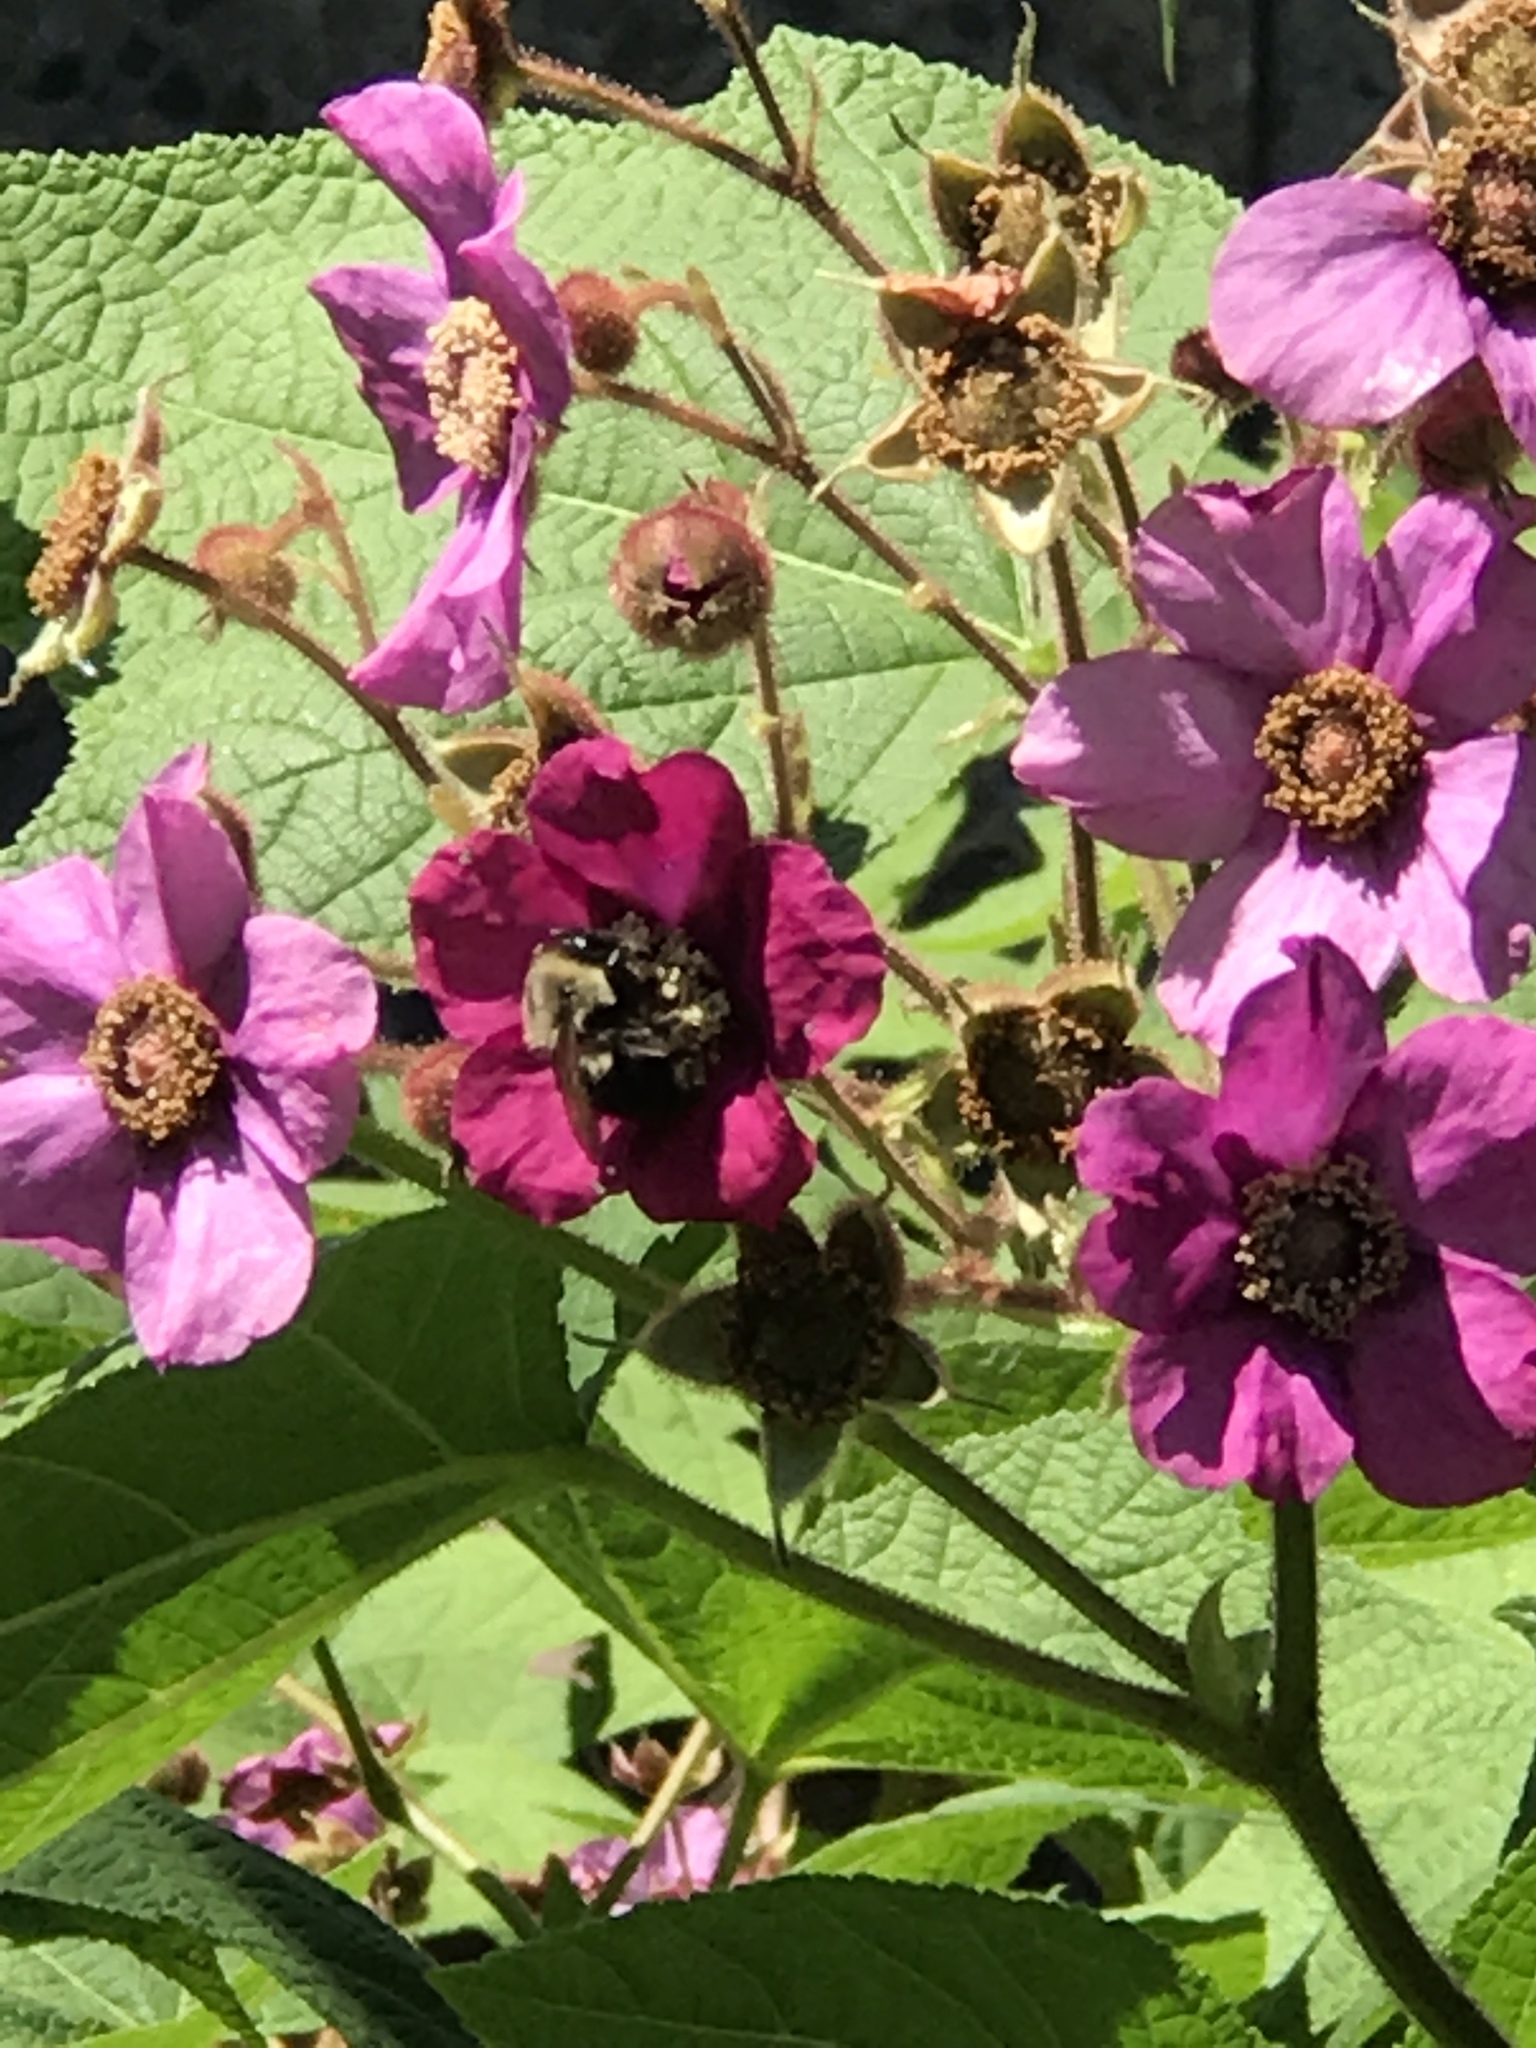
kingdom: Animalia
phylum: Arthropoda
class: Insecta
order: Hymenoptera
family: Apidae
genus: Bombus
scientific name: Bombus impatiens
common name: Common eastern bumble bee
